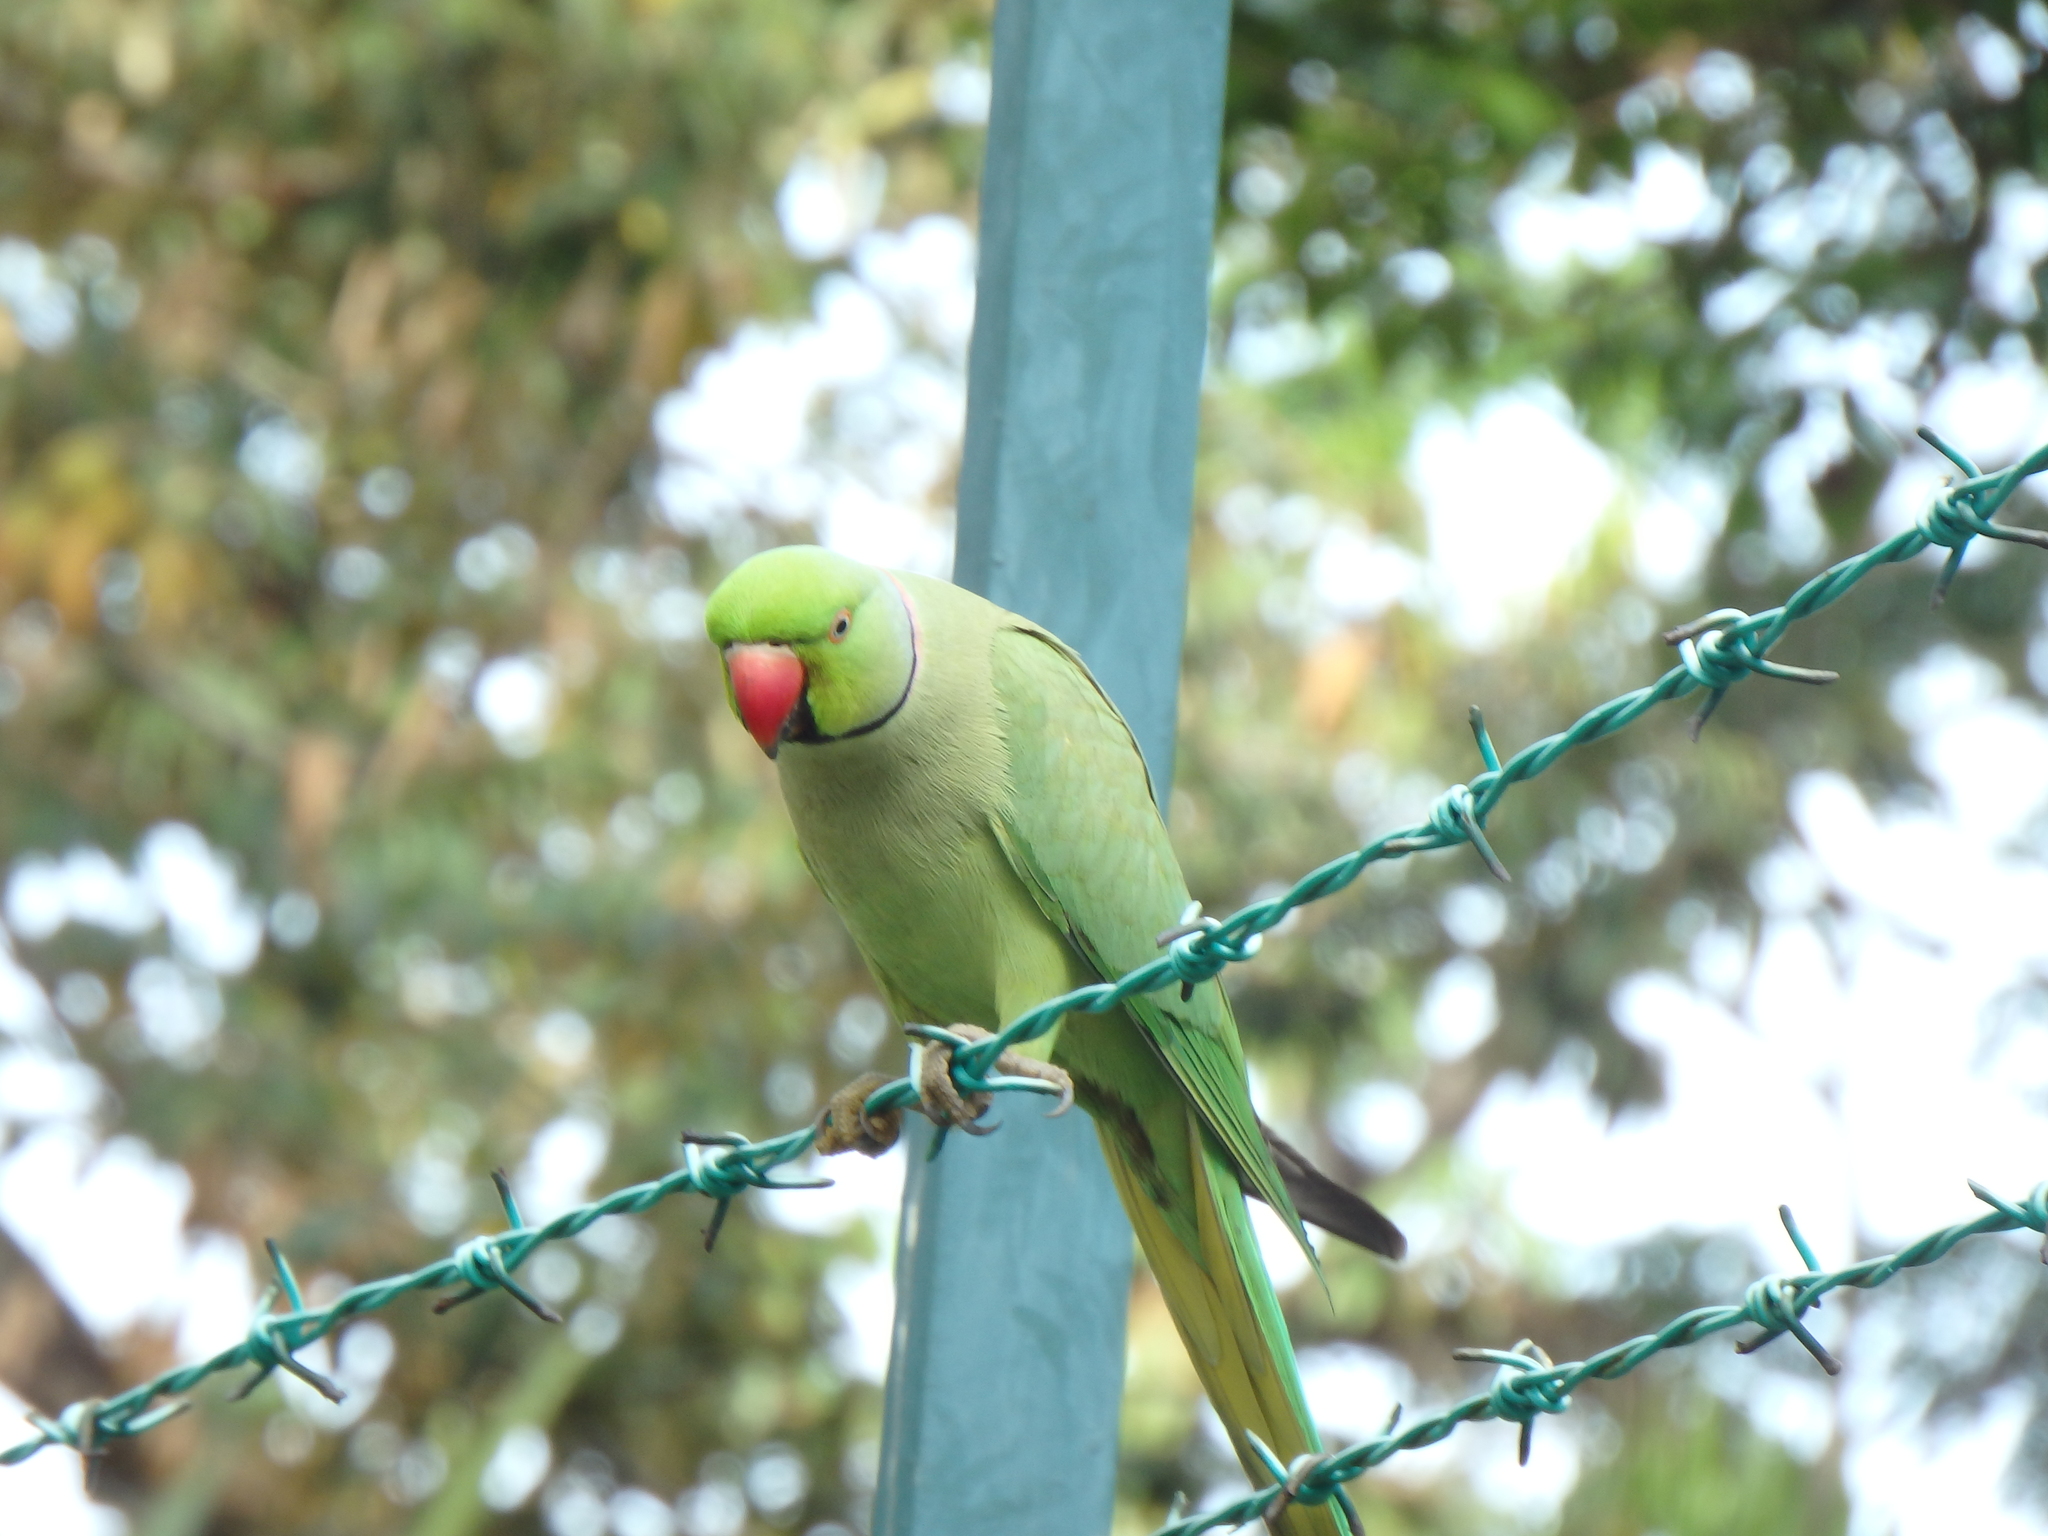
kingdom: Animalia
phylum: Chordata
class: Aves
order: Psittaciformes
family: Psittacidae
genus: Psittacula
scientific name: Psittacula krameri
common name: Rose-ringed parakeet
